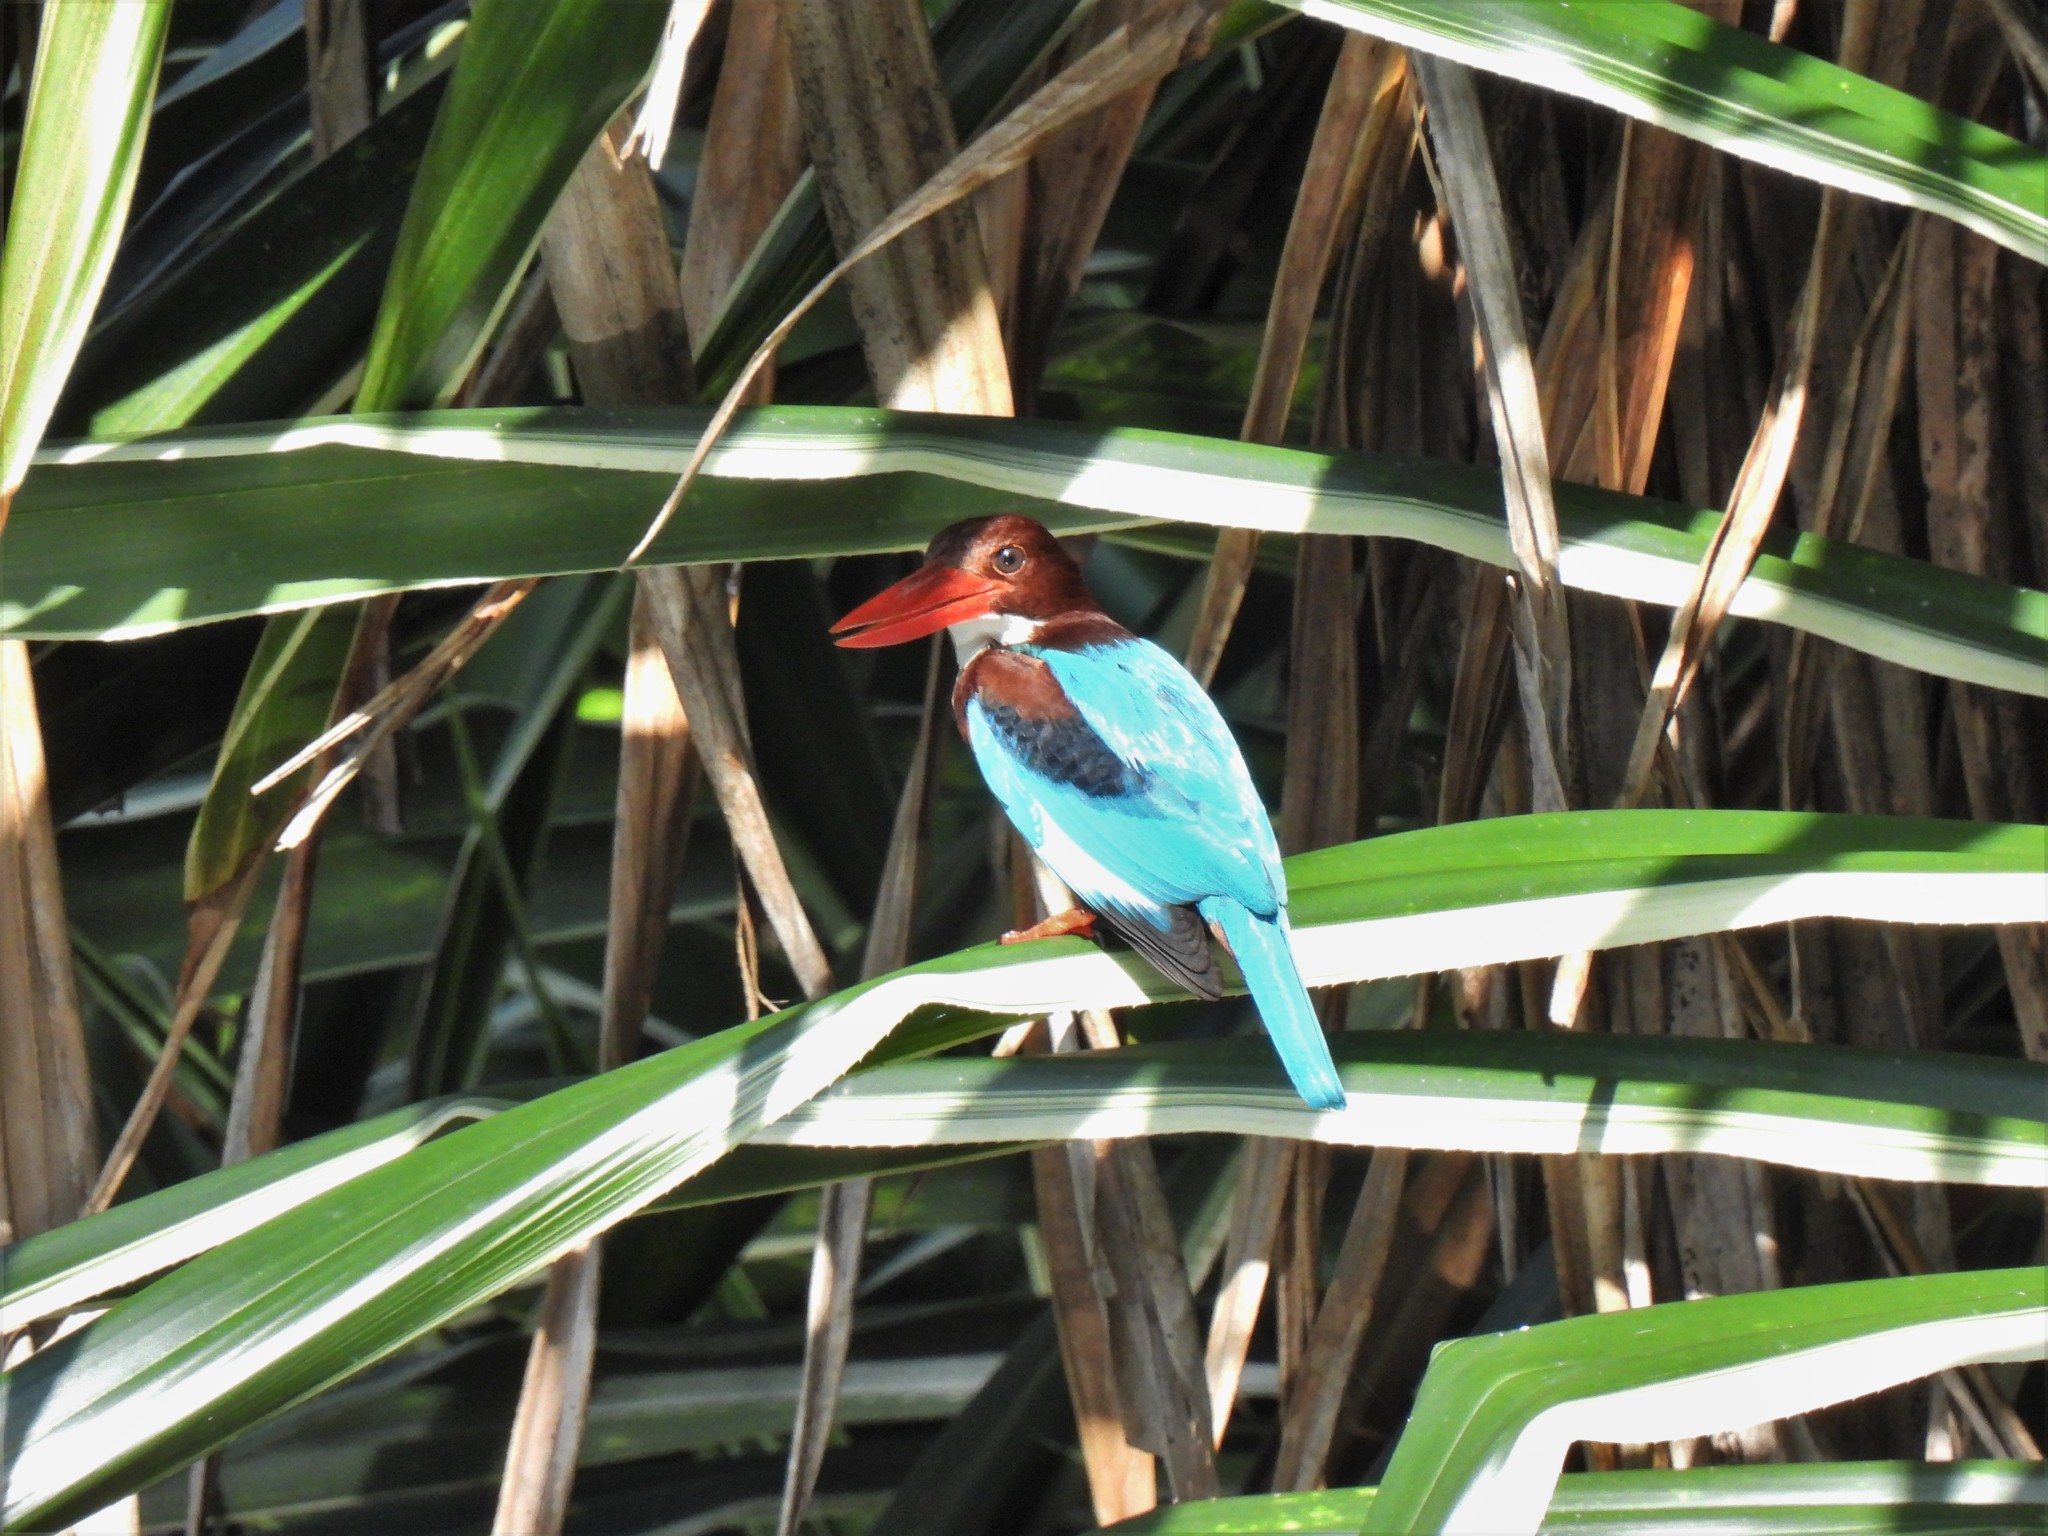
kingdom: Animalia
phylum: Chordata
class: Aves
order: Coraciiformes
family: Alcedinidae
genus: Halcyon
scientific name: Halcyon smyrnensis
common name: White-throated kingfisher
